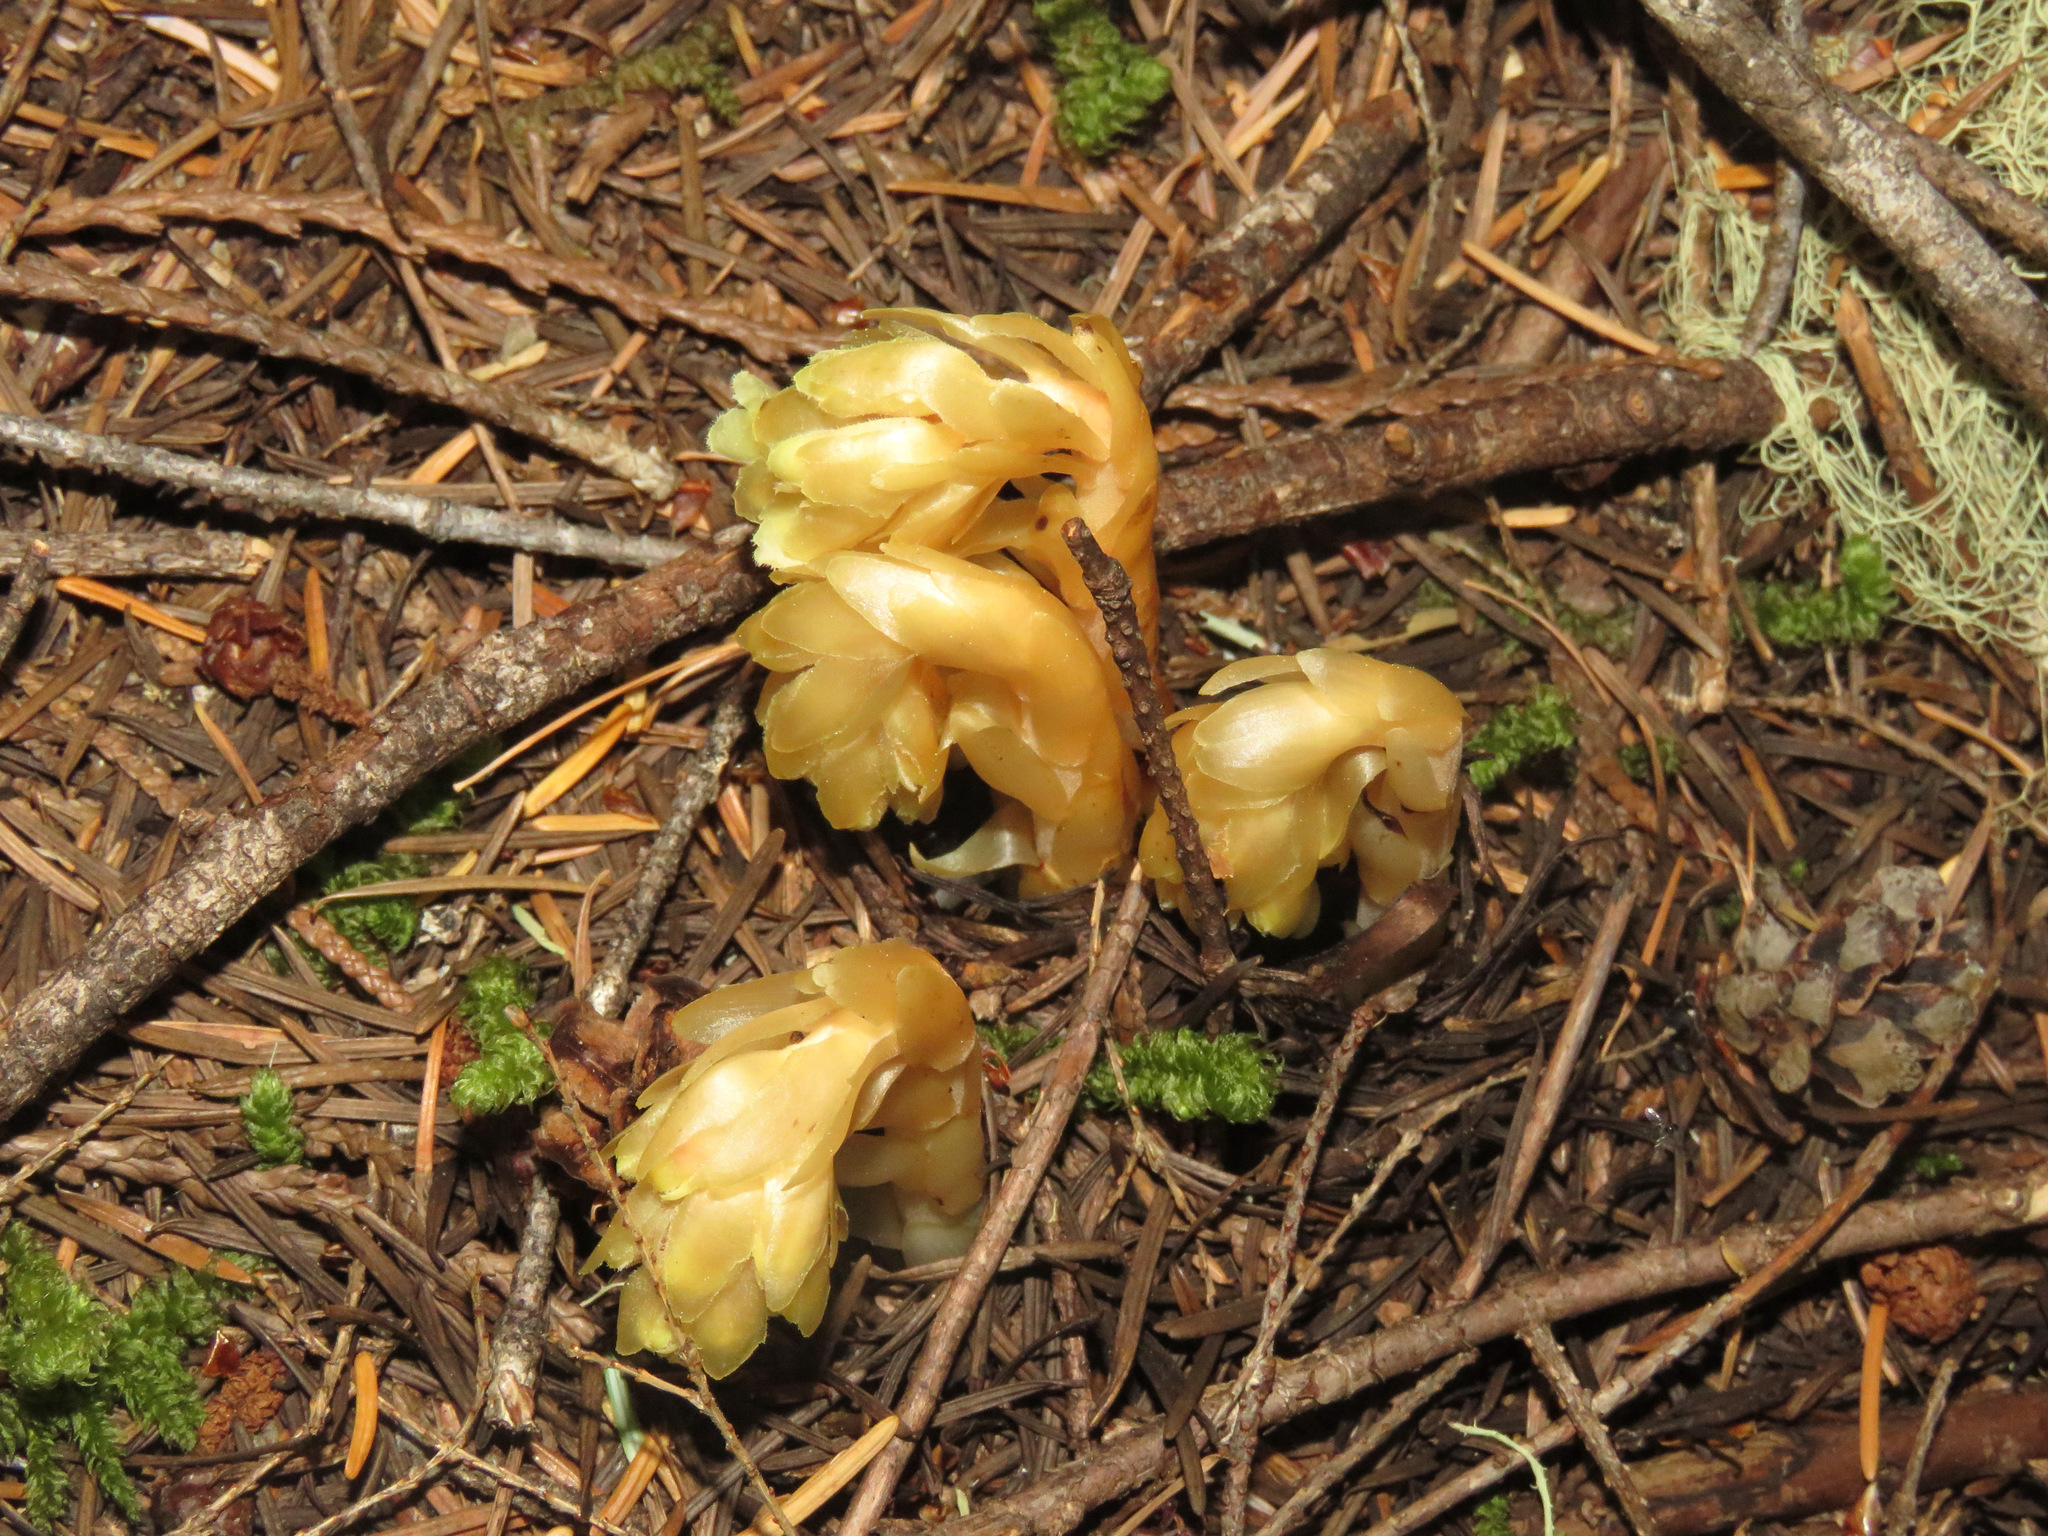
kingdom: Plantae
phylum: Tracheophyta
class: Magnoliopsida
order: Ericales
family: Ericaceae
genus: Hypopitys
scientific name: Hypopitys monotropa
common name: Yellow bird's-nest
